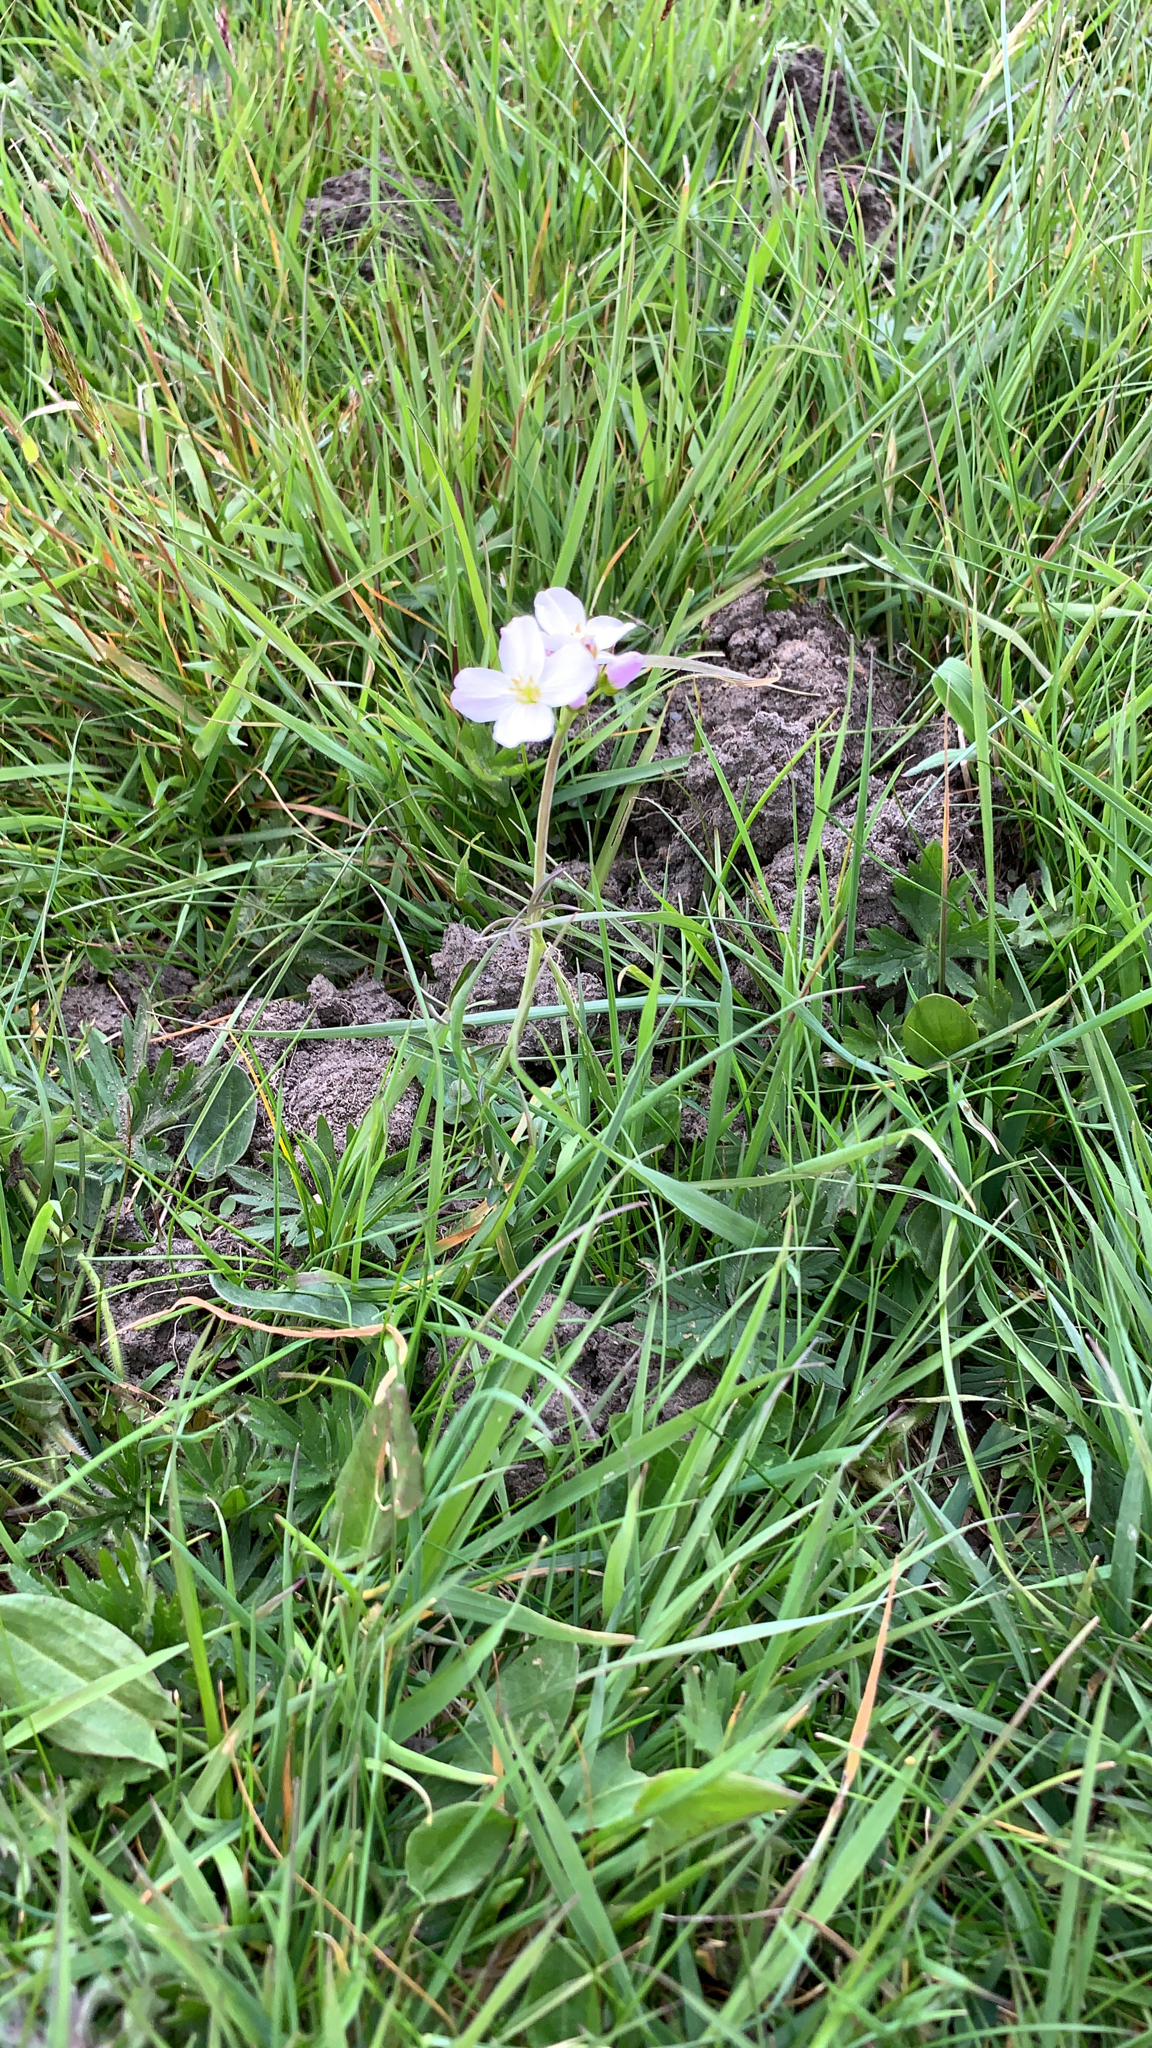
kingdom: Plantae
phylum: Tracheophyta
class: Magnoliopsida
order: Brassicales
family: Brassicaceae
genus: Cardamine
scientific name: Cardamine pratensis
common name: Cuckoo flower
